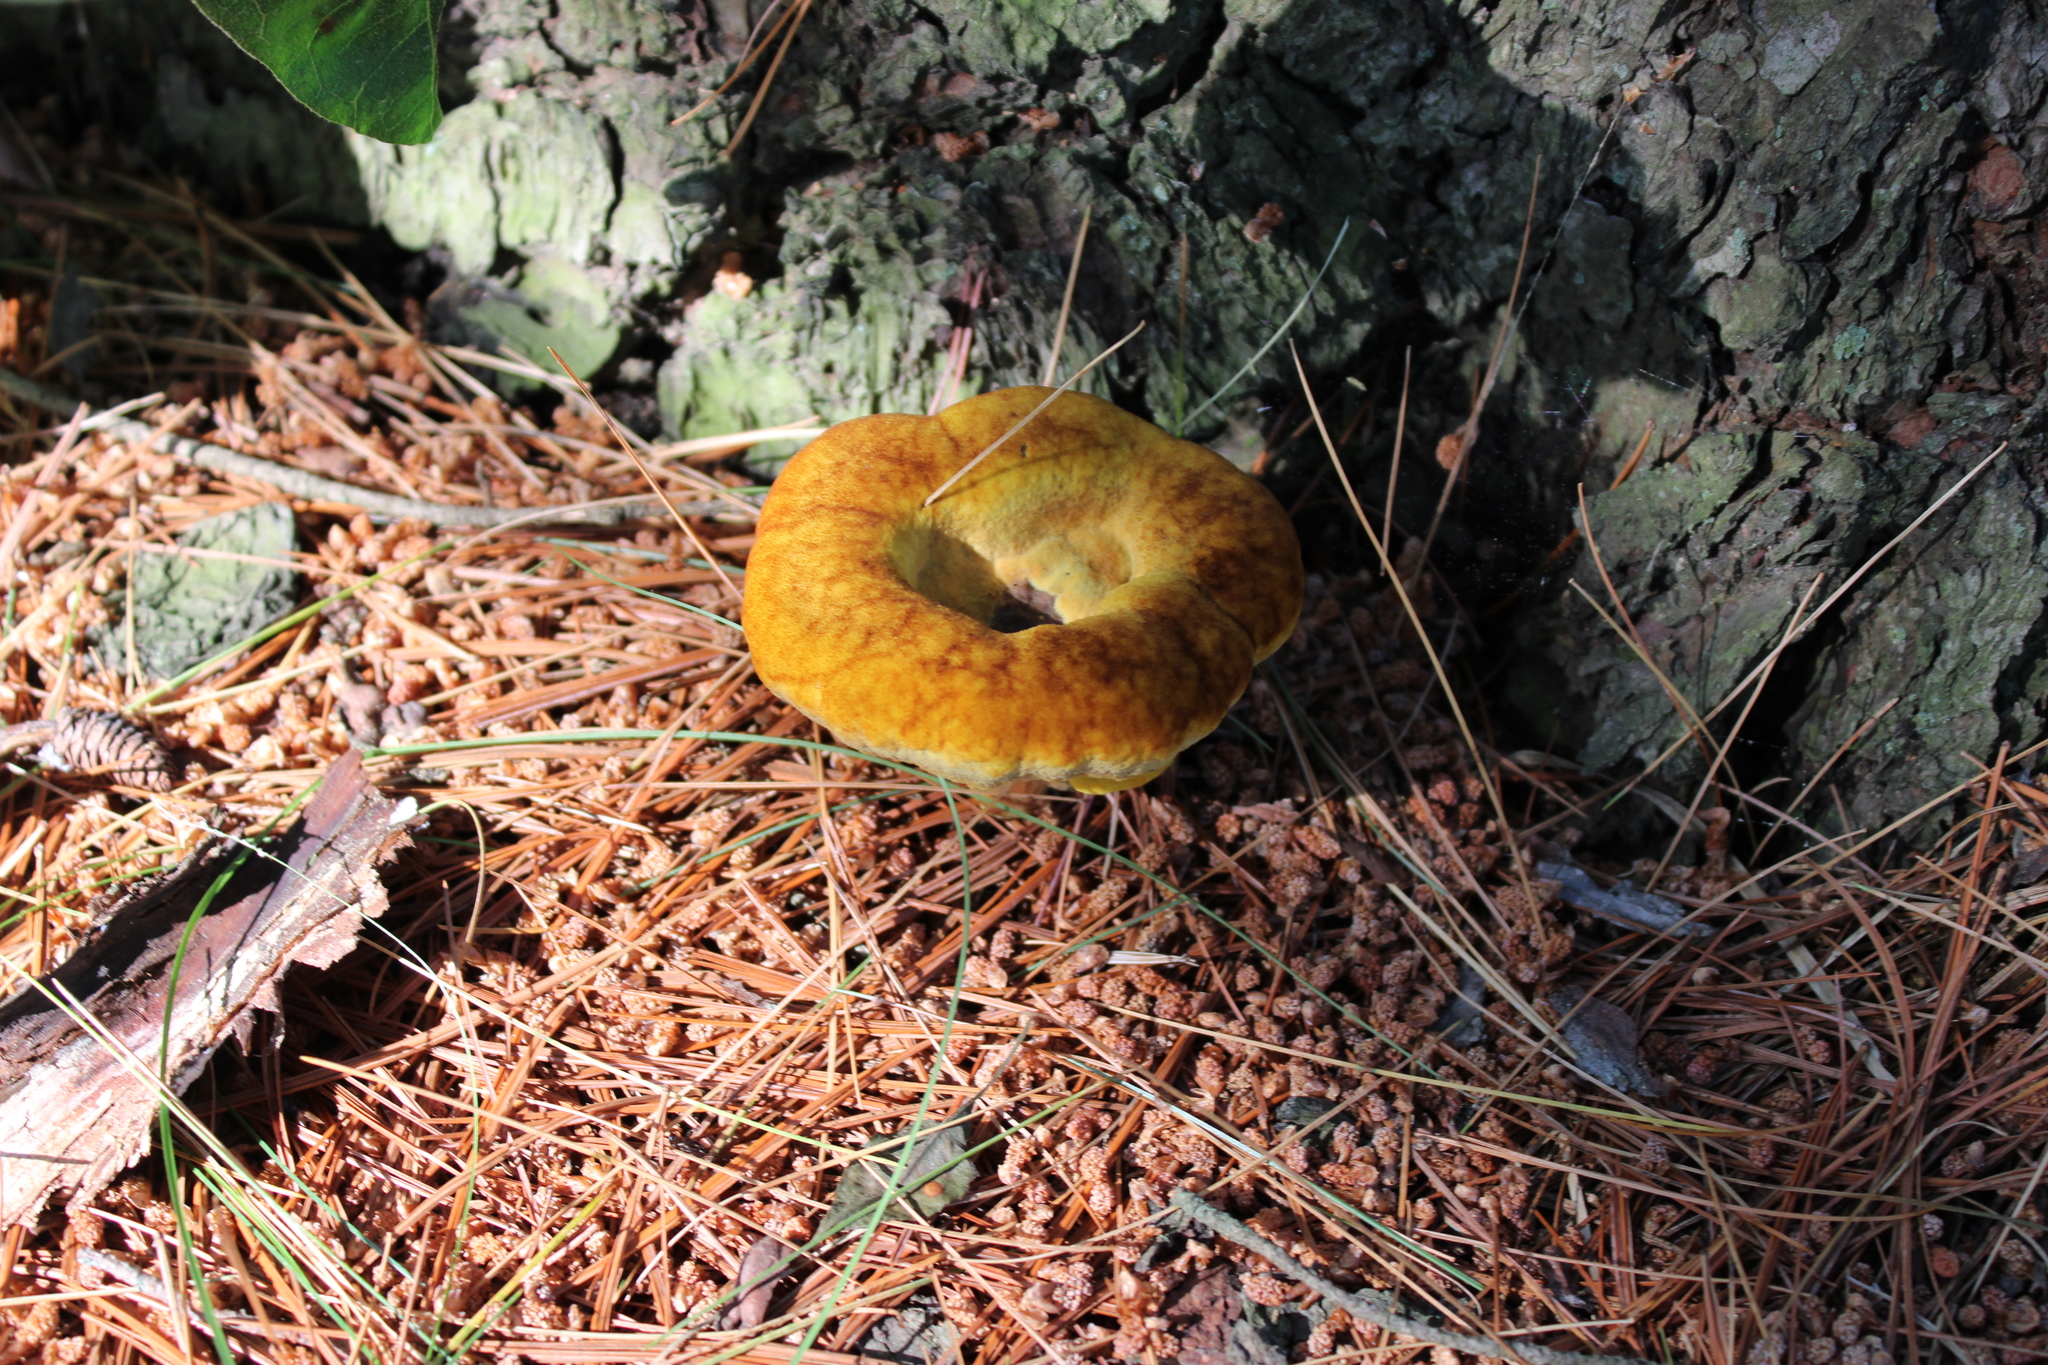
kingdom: Fungi
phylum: Basidiomycota
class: Agaricomycetes
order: Polyporales
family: Laetiporaceae
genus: Phaeolus
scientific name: Phaeolus schweinitzii
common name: Dyer's mazegill
